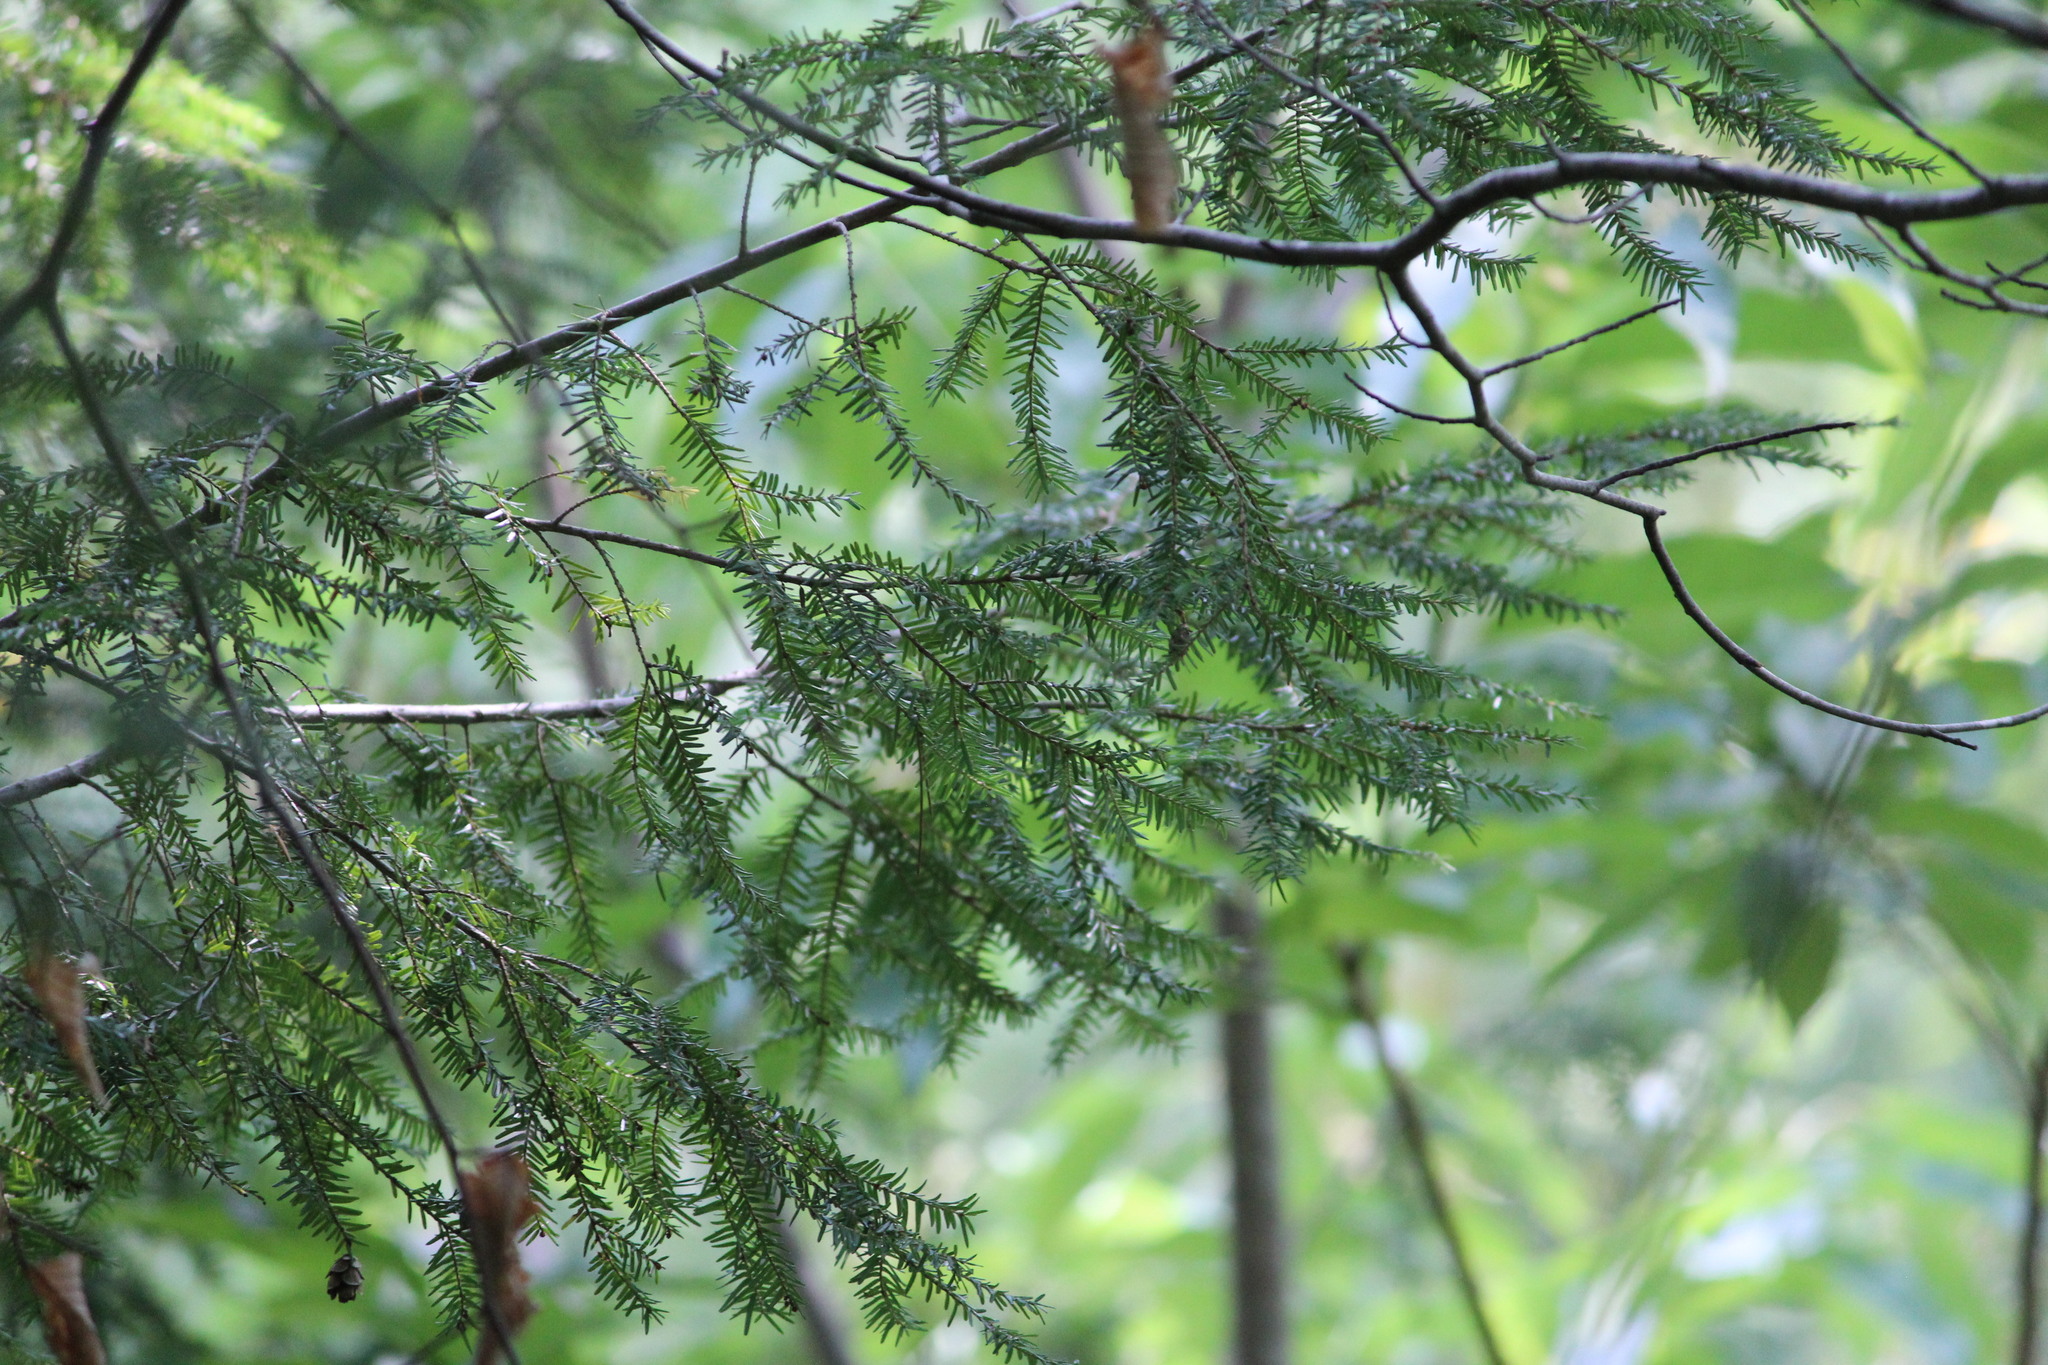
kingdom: Plantae
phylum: Tracheophyta
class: Pinopsida
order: Pinales
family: Pinaceae
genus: Tsuga
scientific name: Tsuga canadensis
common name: Eastern hemlock
